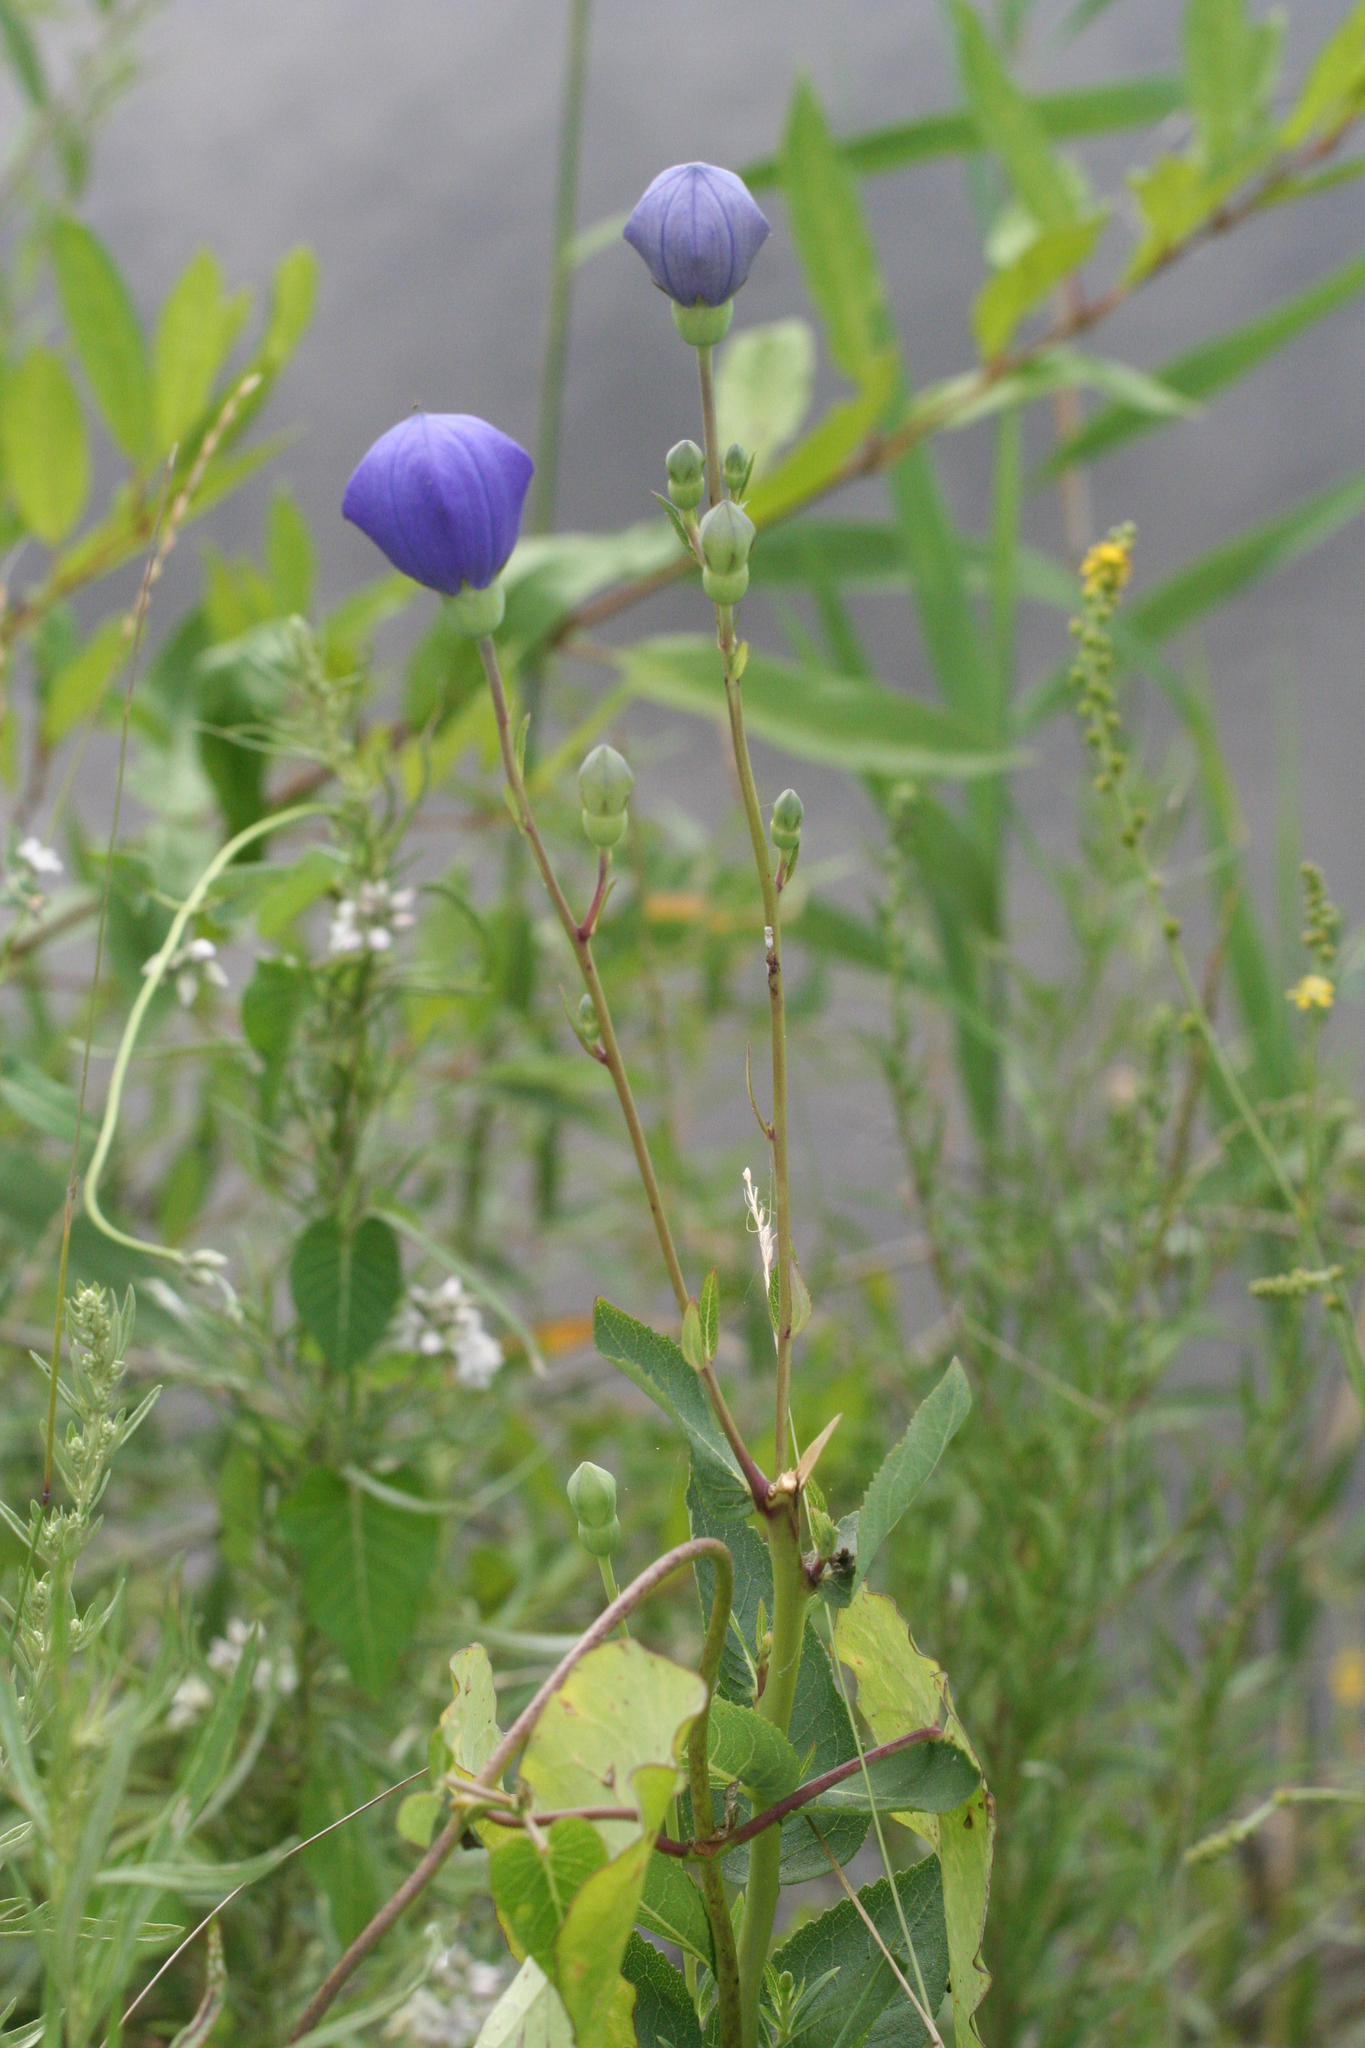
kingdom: Plantae
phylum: Tracheophyta
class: Magnoliopsida
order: Asterales
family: Campanulaceae
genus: Platycodon
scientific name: Platycodon grandiflorus
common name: Balloon-flower
